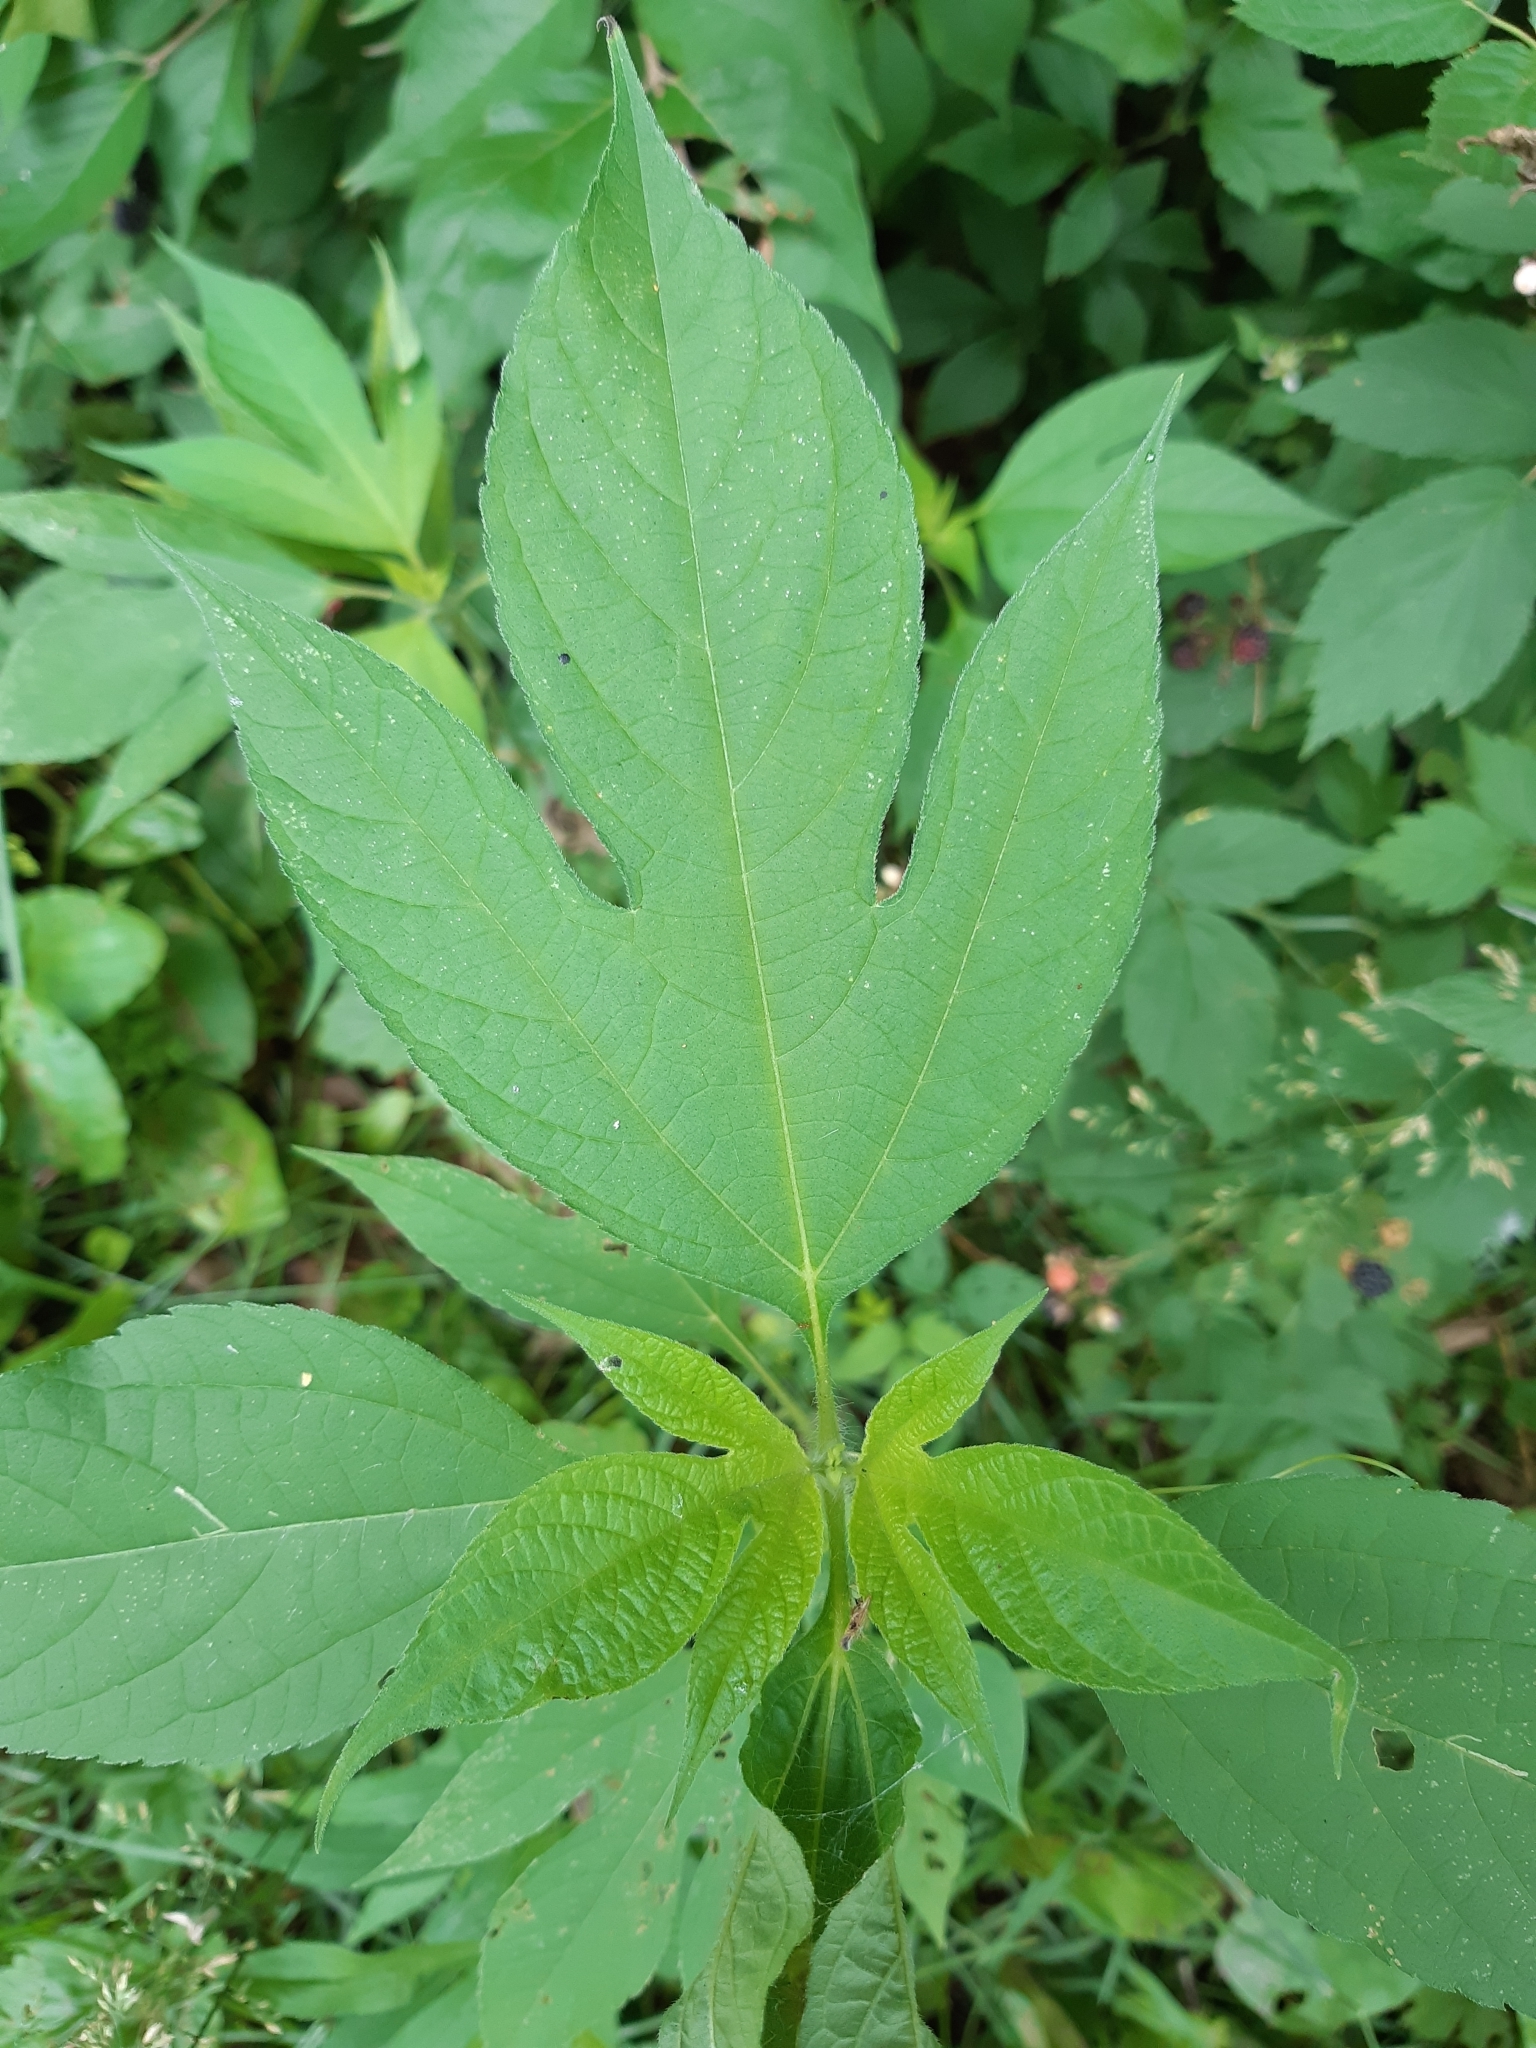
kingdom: Plantae
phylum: Tracheophyta
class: Magnoliopsida
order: Asterales
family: Asteraceae
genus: Ambrosia
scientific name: Ambrosia trifida
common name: Giant ragweed
